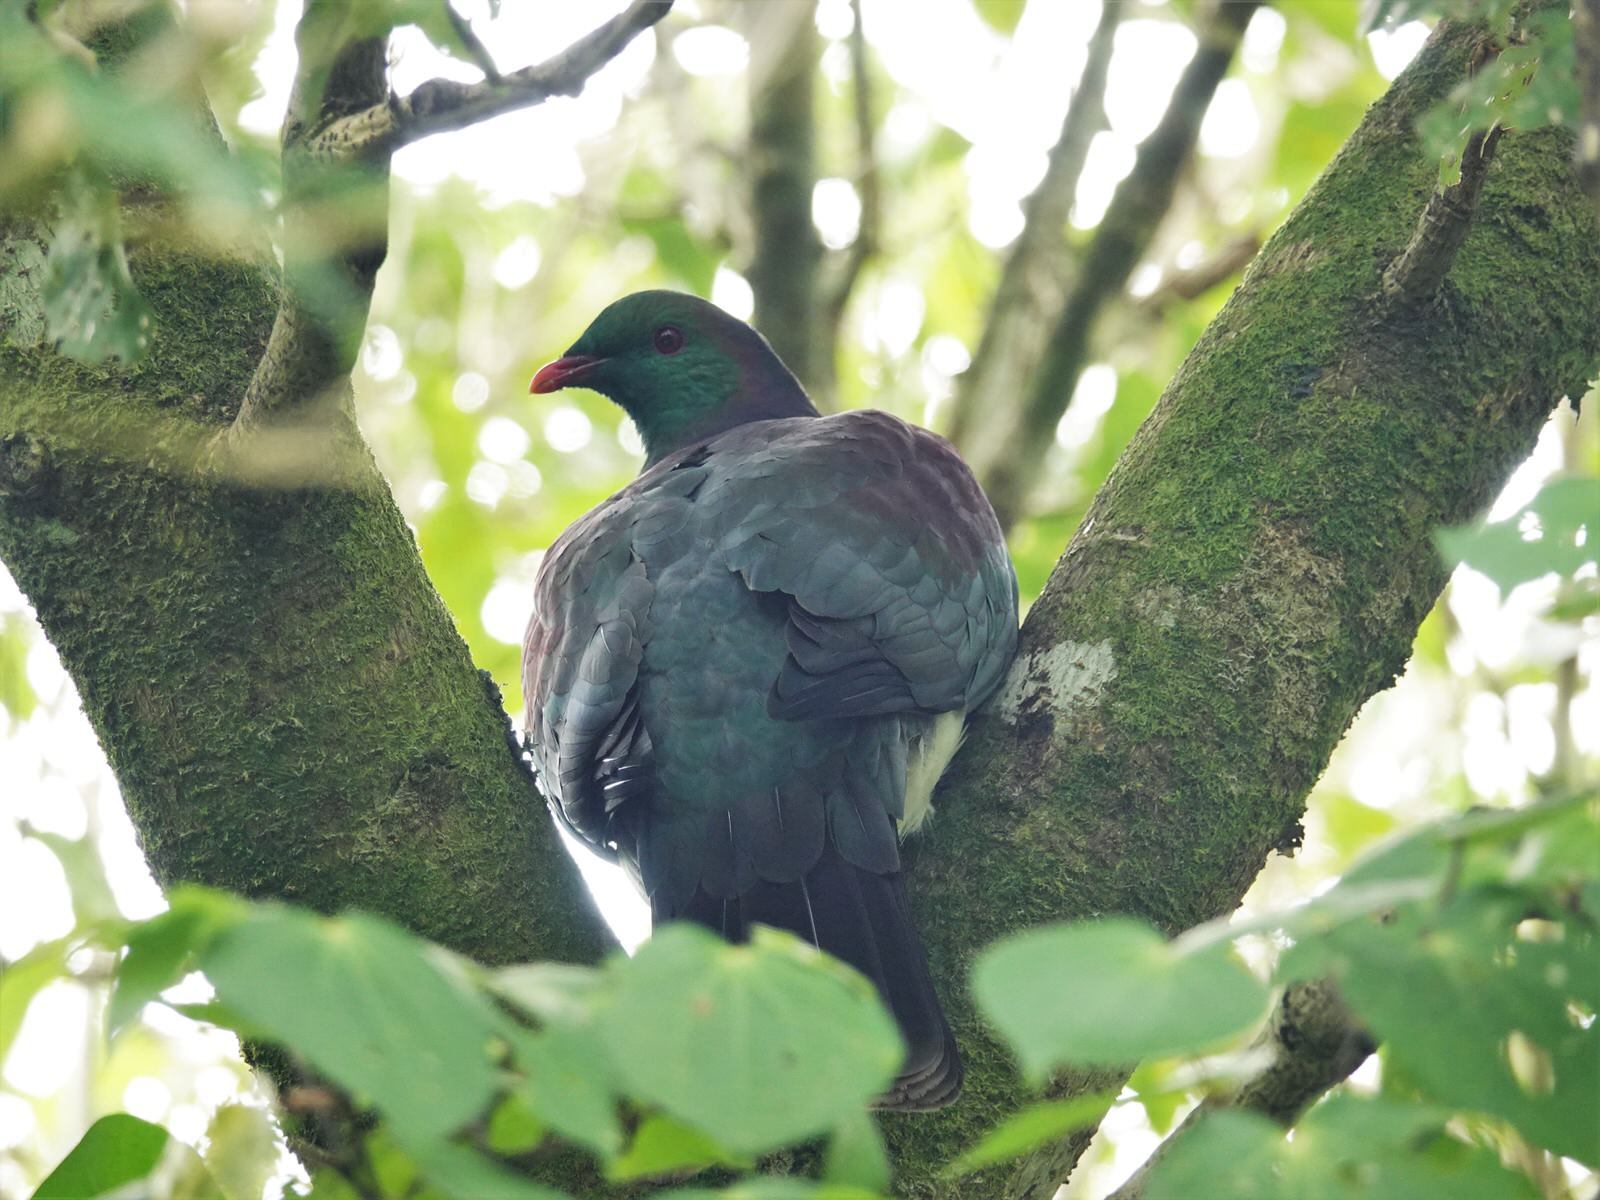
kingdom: Animalia
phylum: Chordata
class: Aves
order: Columbiformes
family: Columbidae
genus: Hemiphaga
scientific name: Hemiphaga novaeseelandiae
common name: New zealand pigeon
